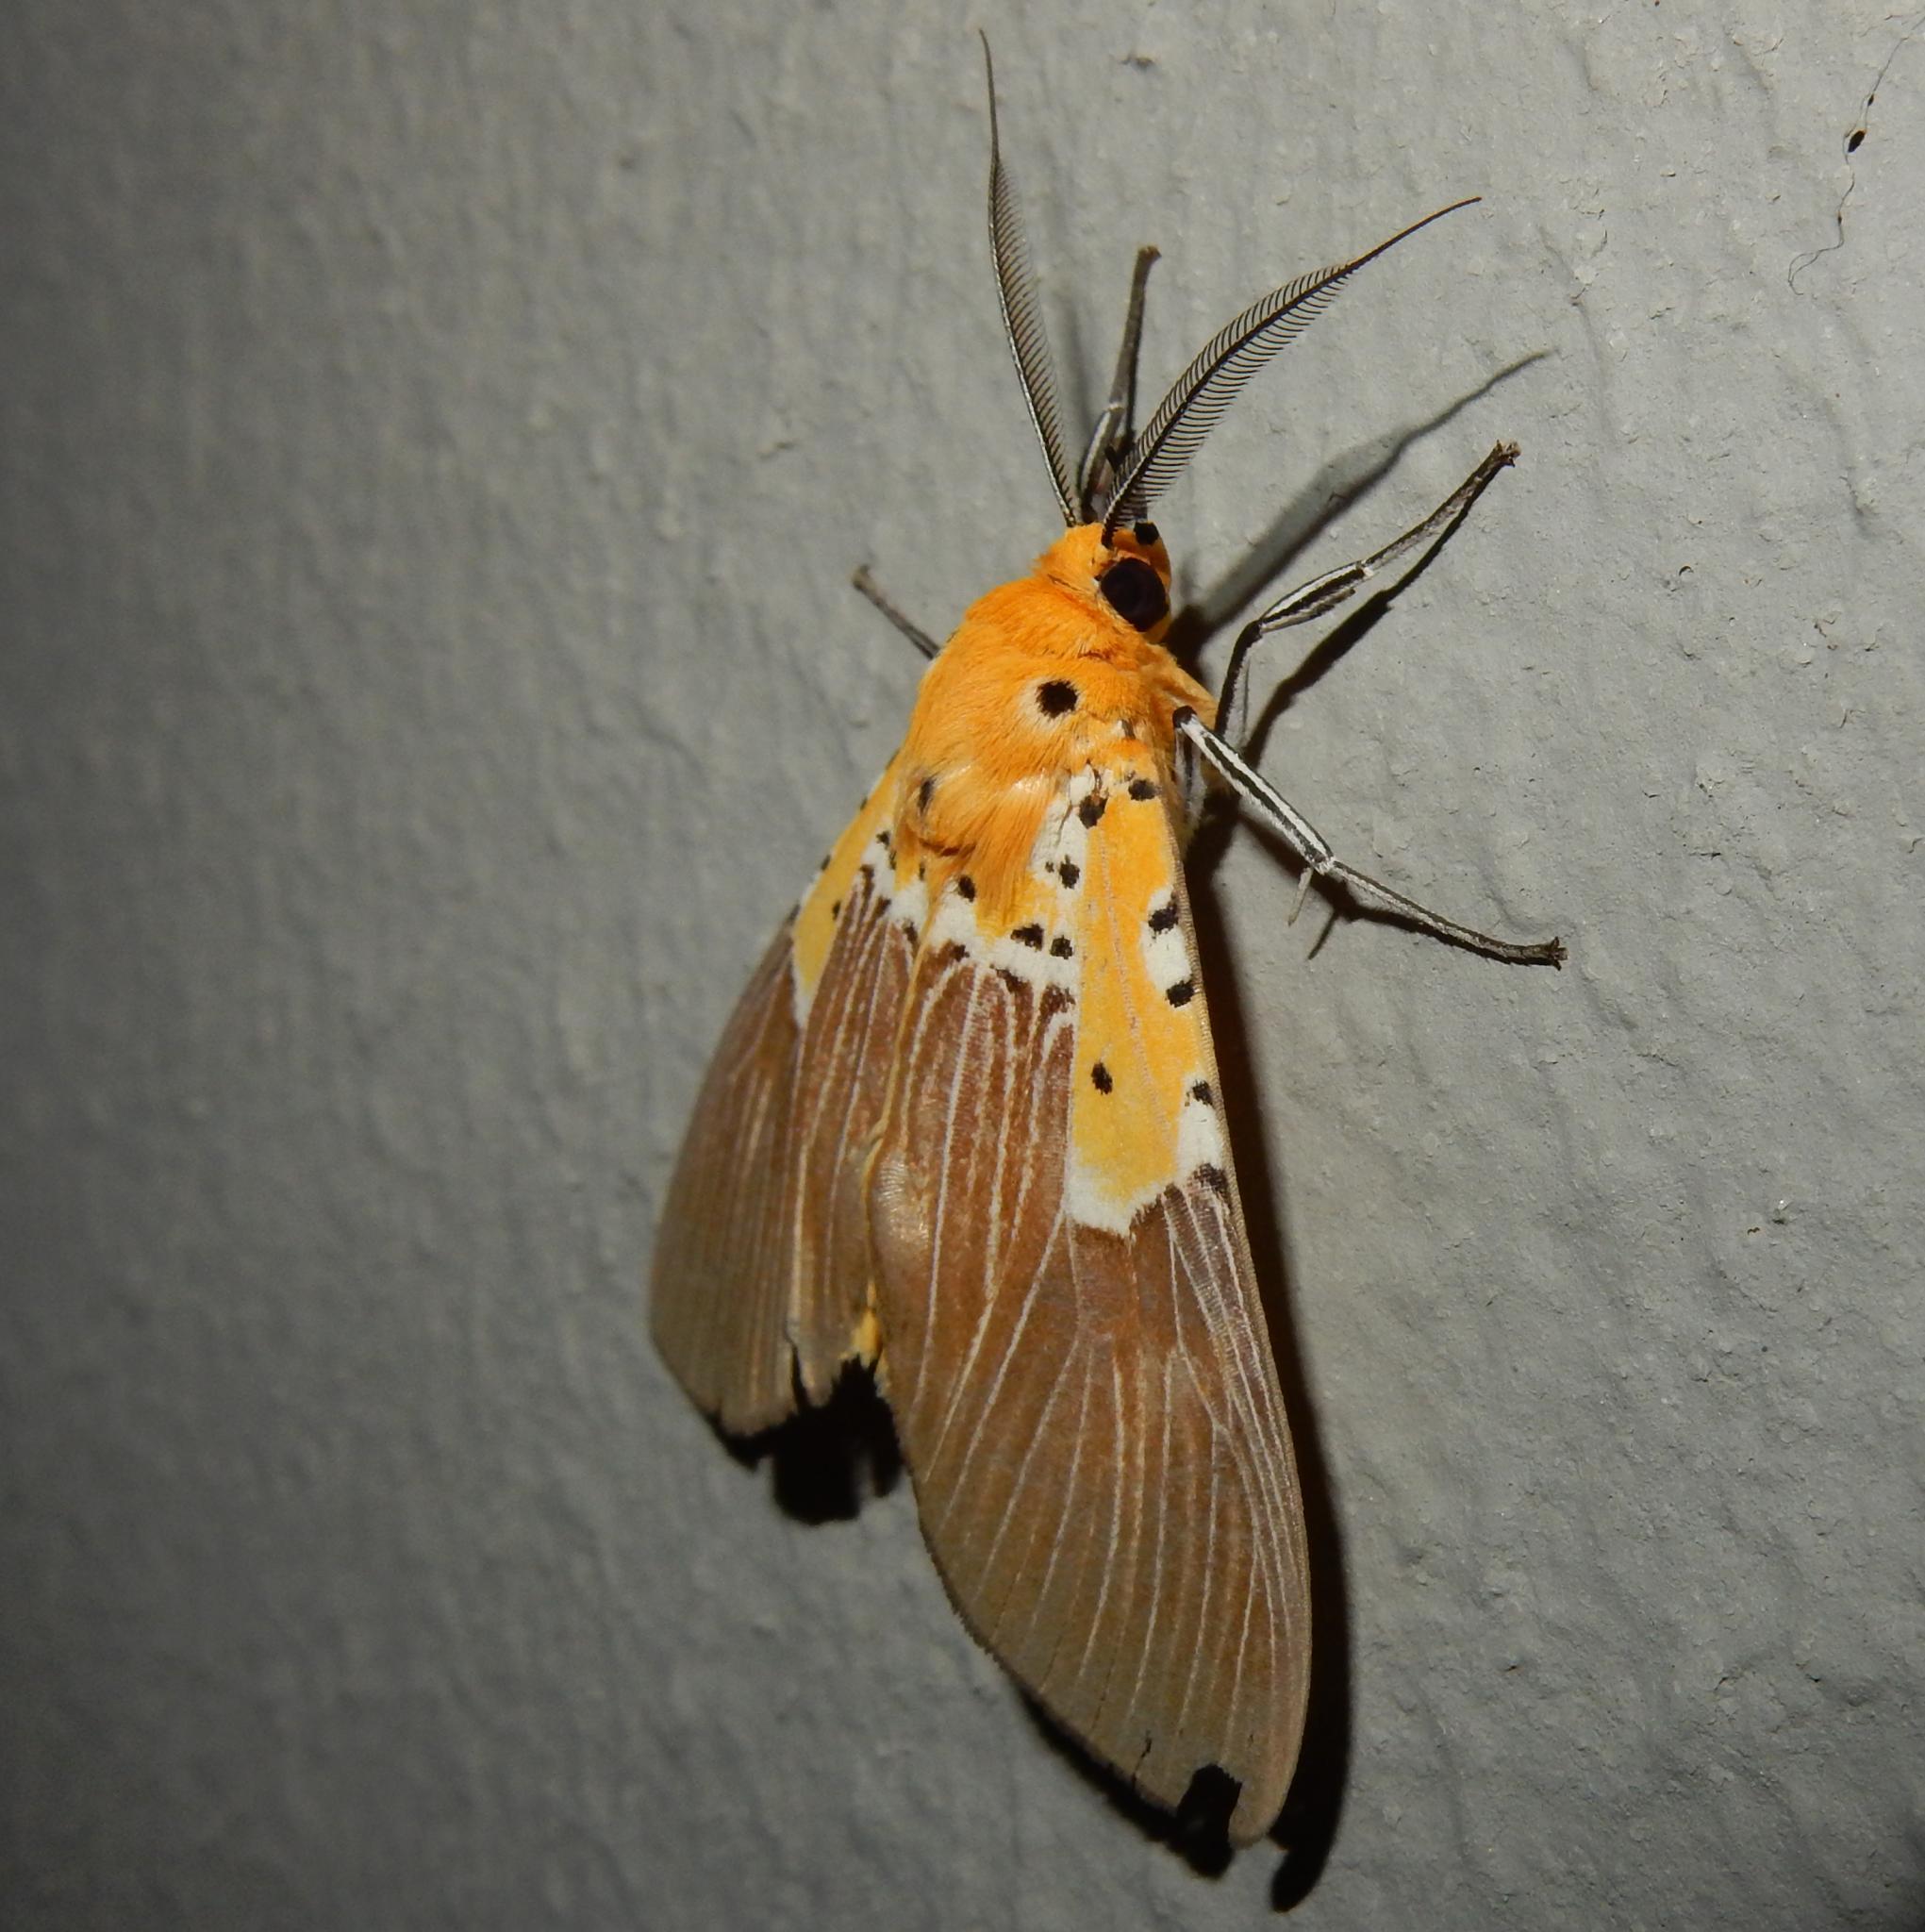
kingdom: Animalia
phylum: Arthropoda
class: Insecta
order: Lepidoptera
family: Erebidae
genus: Asota
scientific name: Asota speciosa
